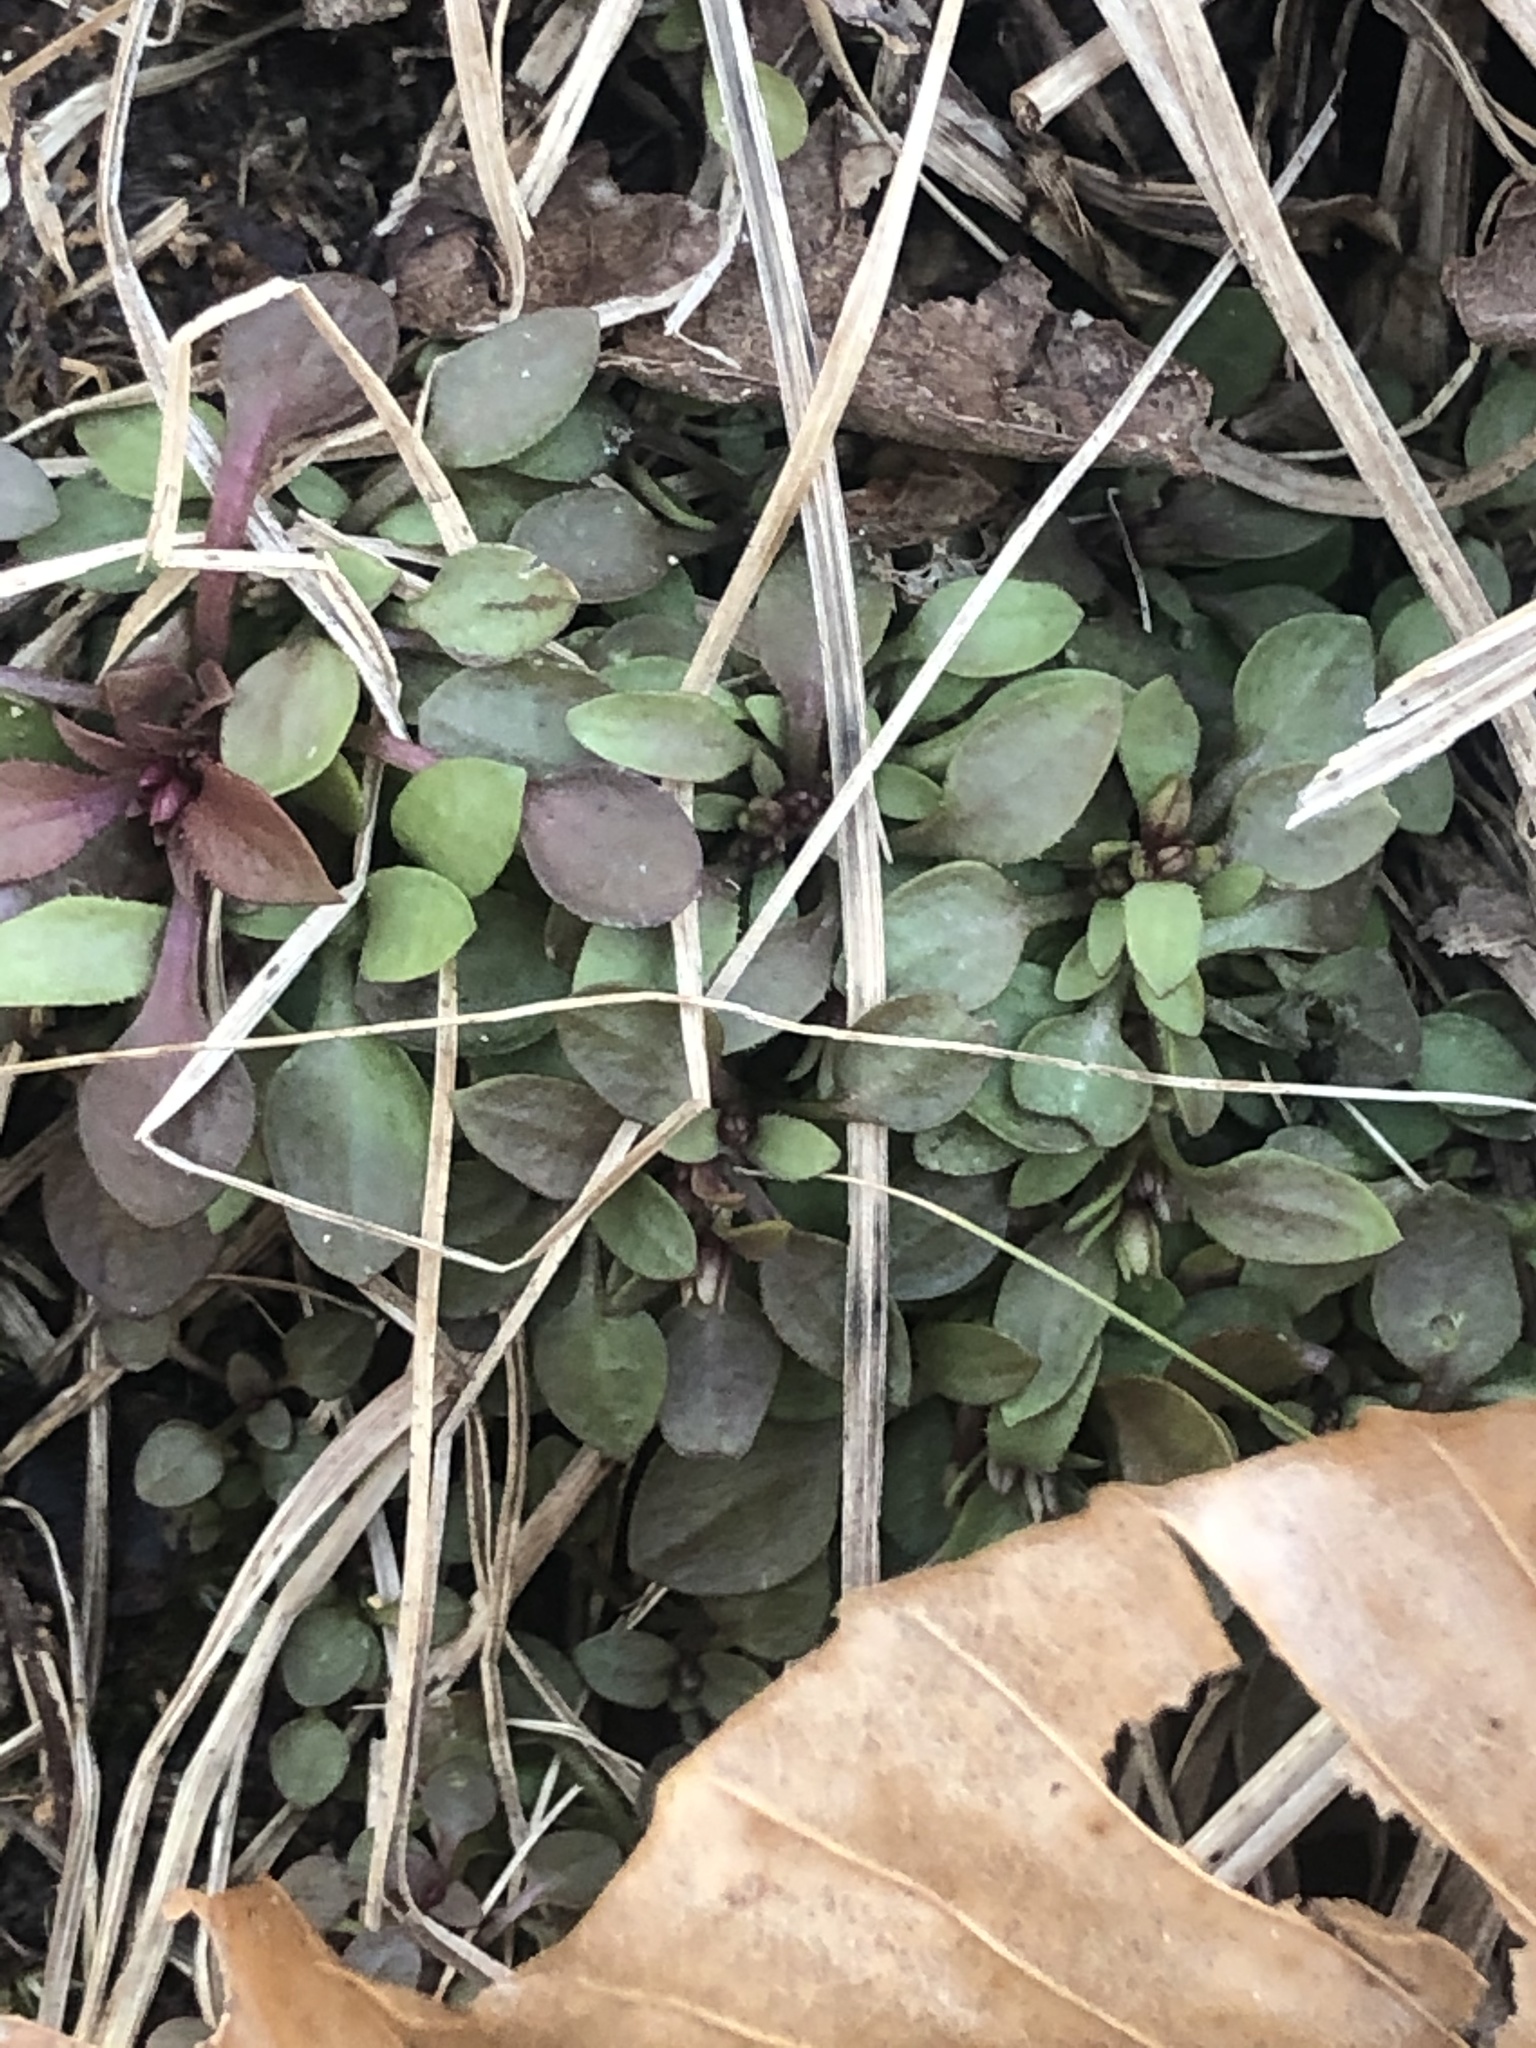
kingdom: Plantae
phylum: Tracheophyta
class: Magnoliopsida
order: Gentianales
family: Rubiaceae
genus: Houstonia
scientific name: Houstonia caerulea
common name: Bluets
